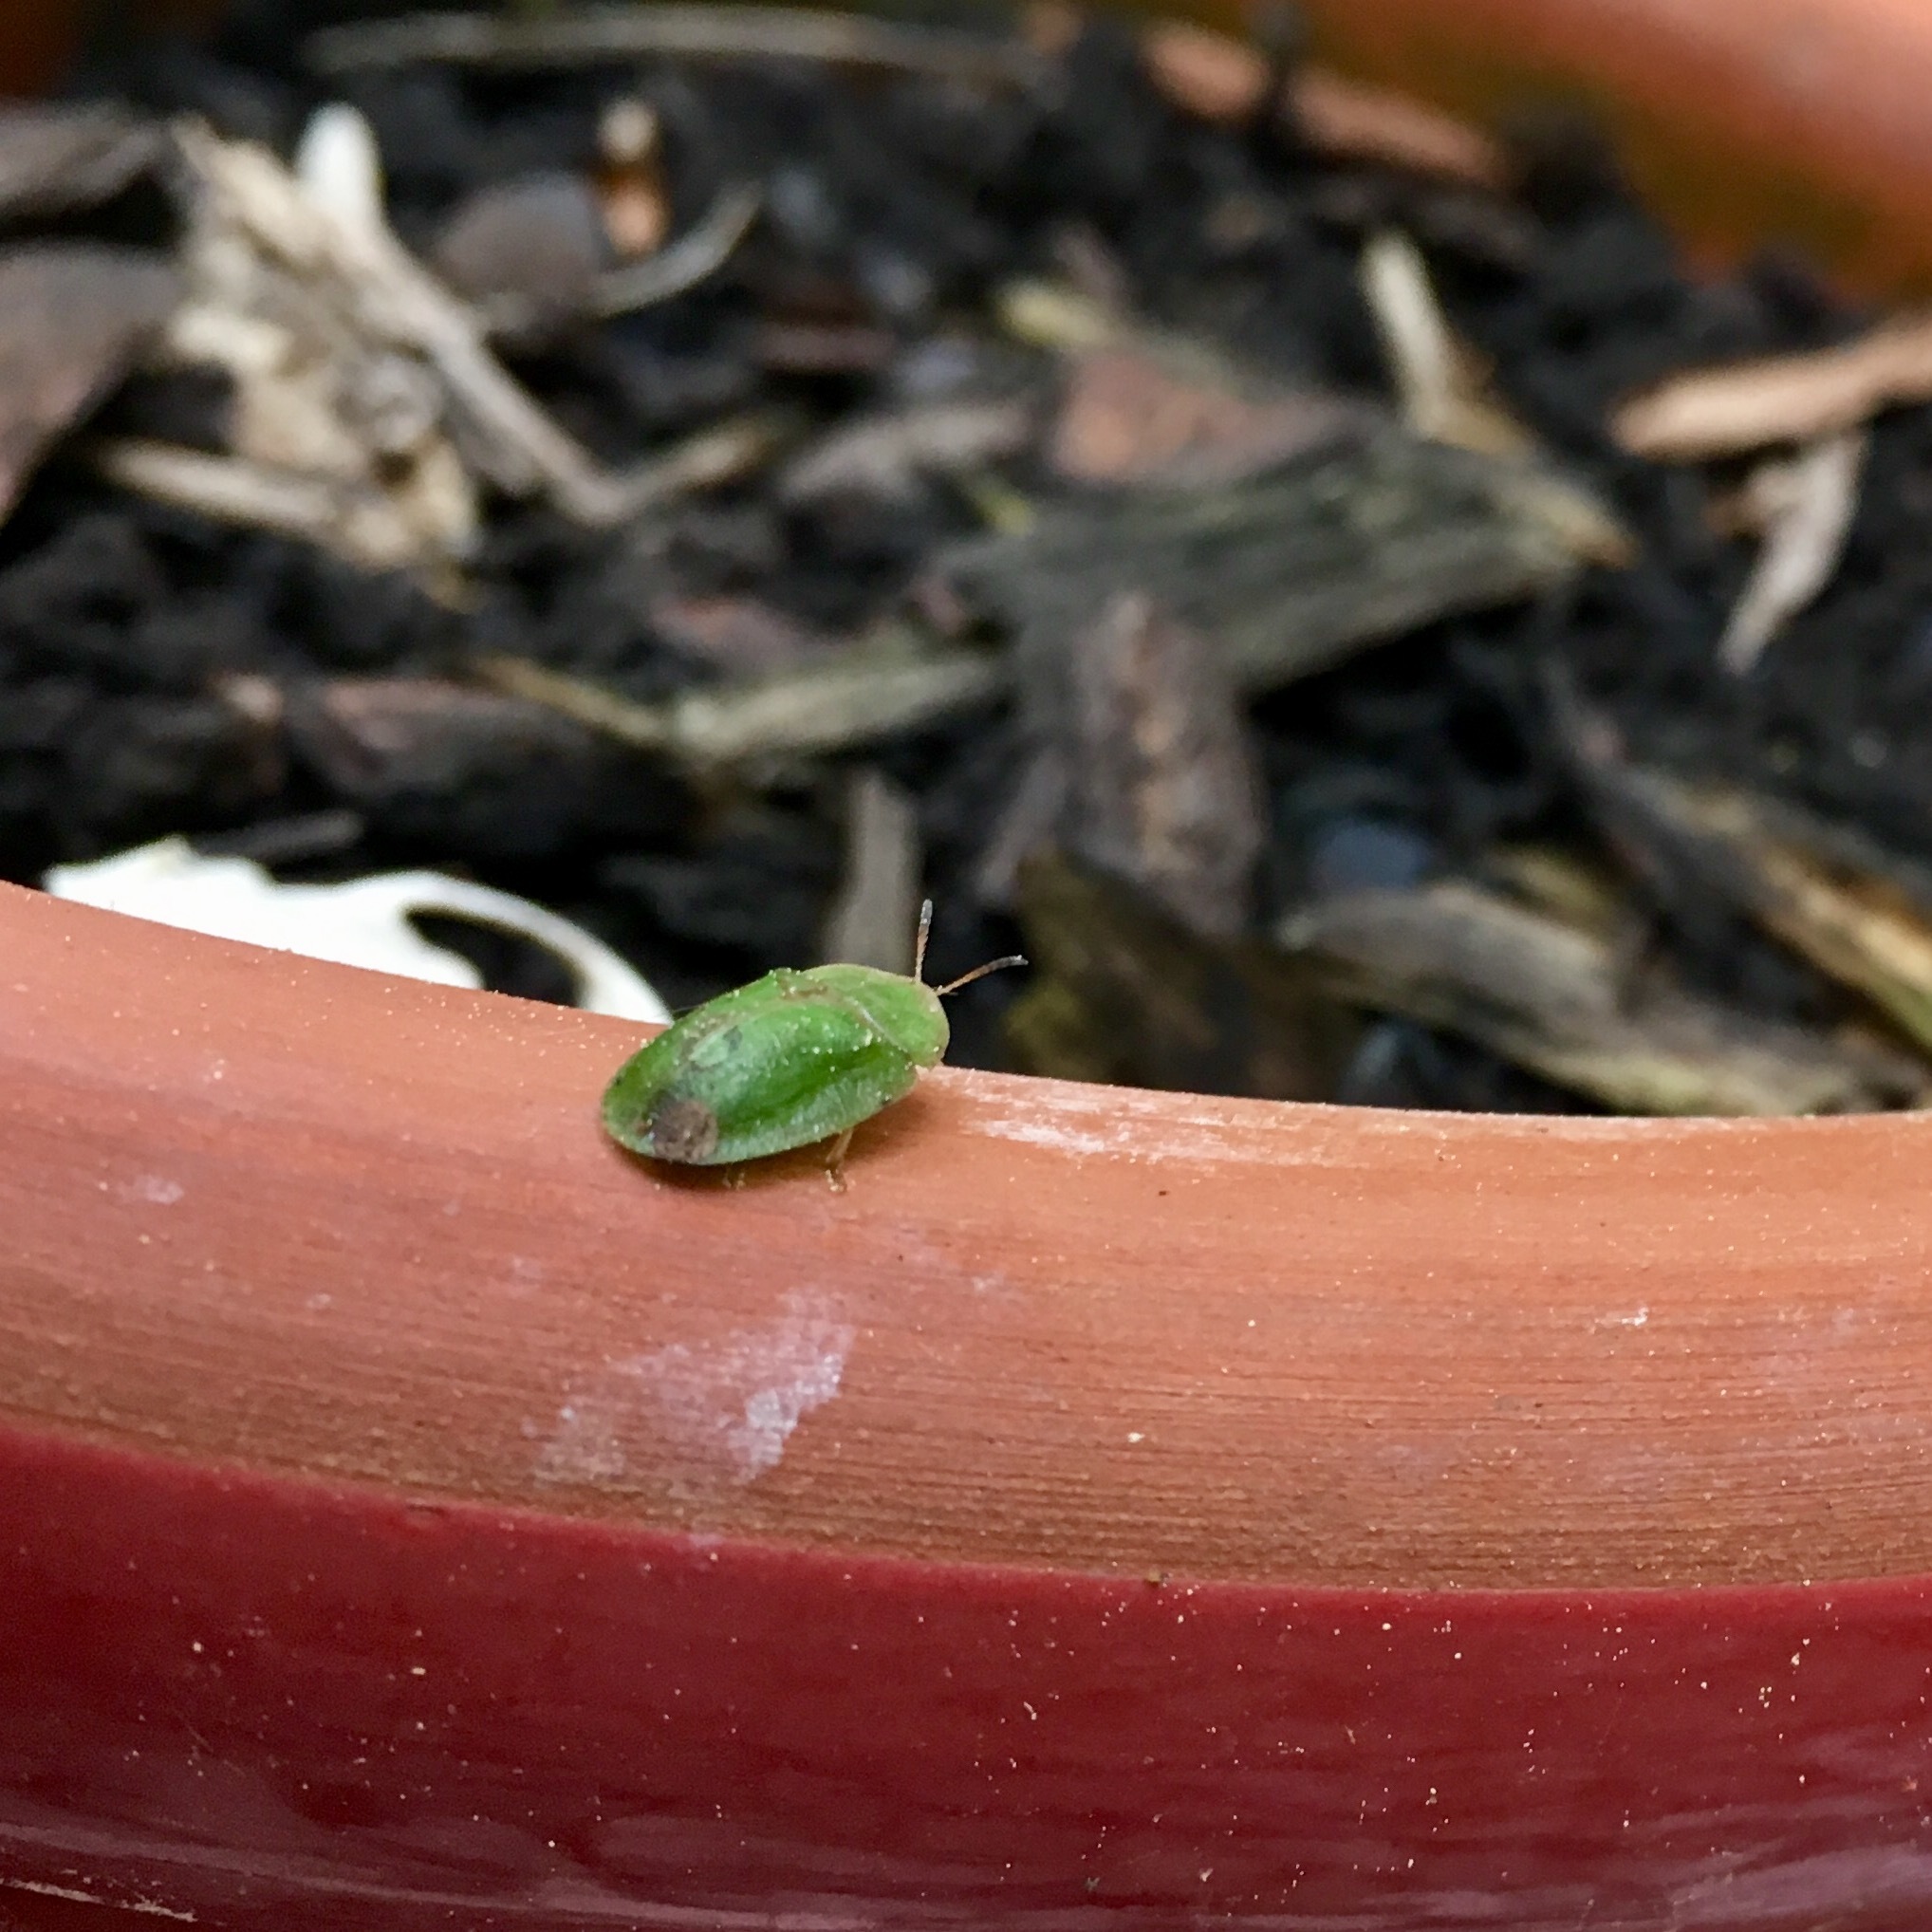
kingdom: Animalia
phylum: Arthropoda
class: Insecta
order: Coleoptera
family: Chrysomelidae
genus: Cassida
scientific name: Cassida rubiginosa
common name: Thistle tortoise beetle
